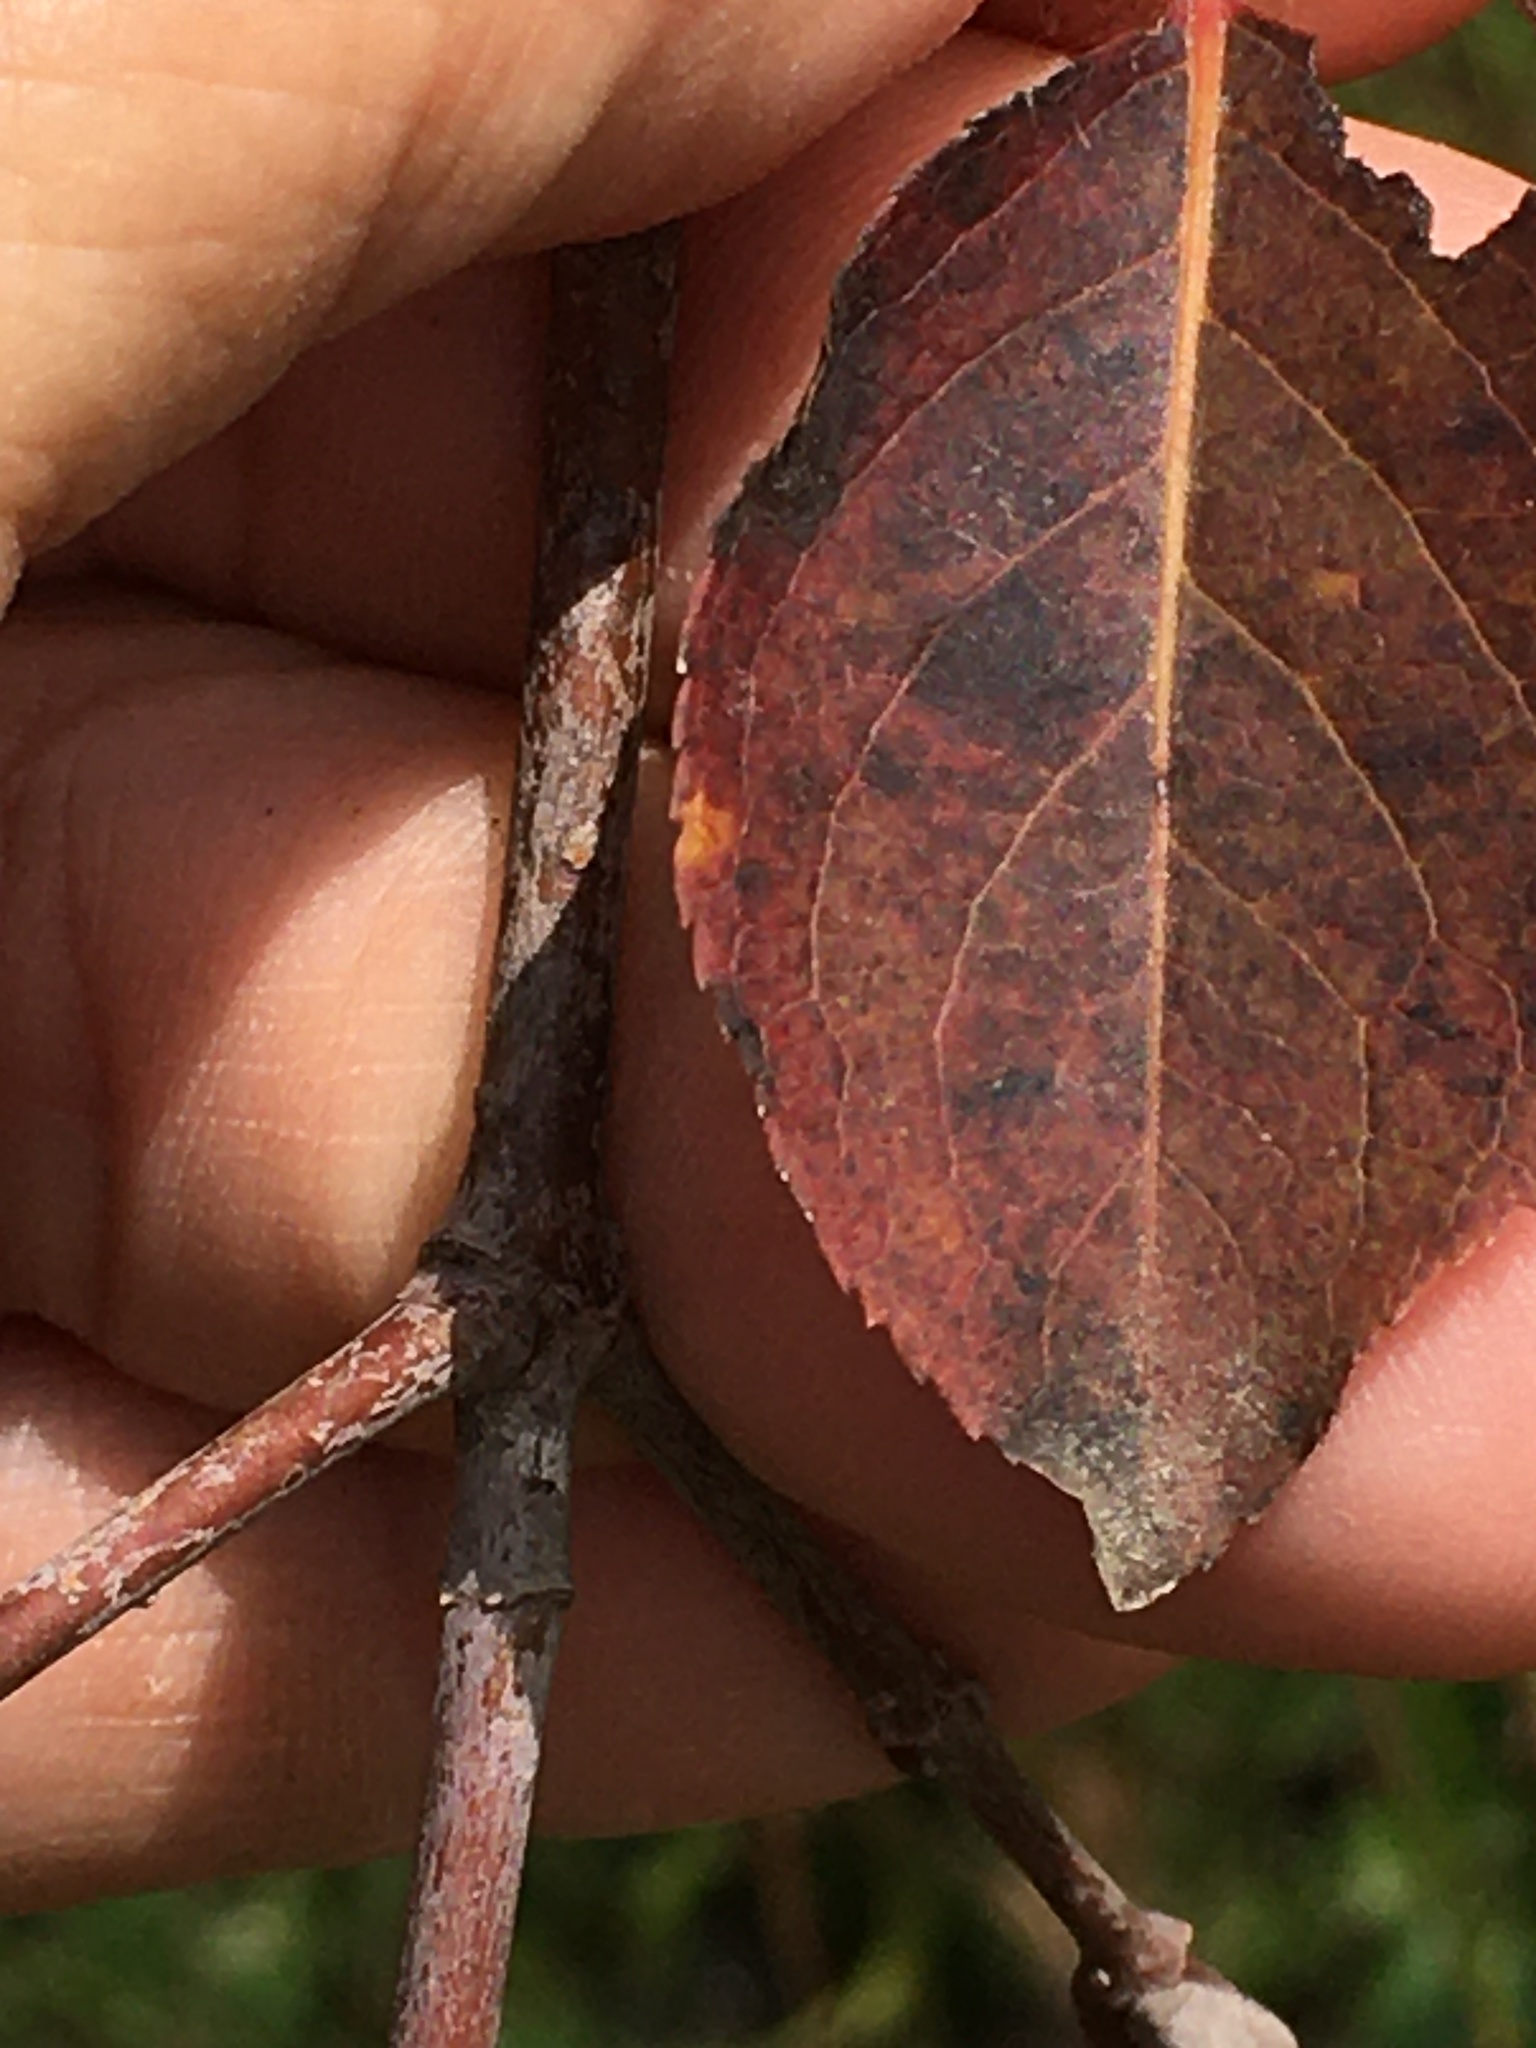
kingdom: Plantae
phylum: Tracheophyta
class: Magnoliopsida
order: Dipsacales
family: Viburnaceae
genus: Viburnum
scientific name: Viburnum prunifolium
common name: Black haw
